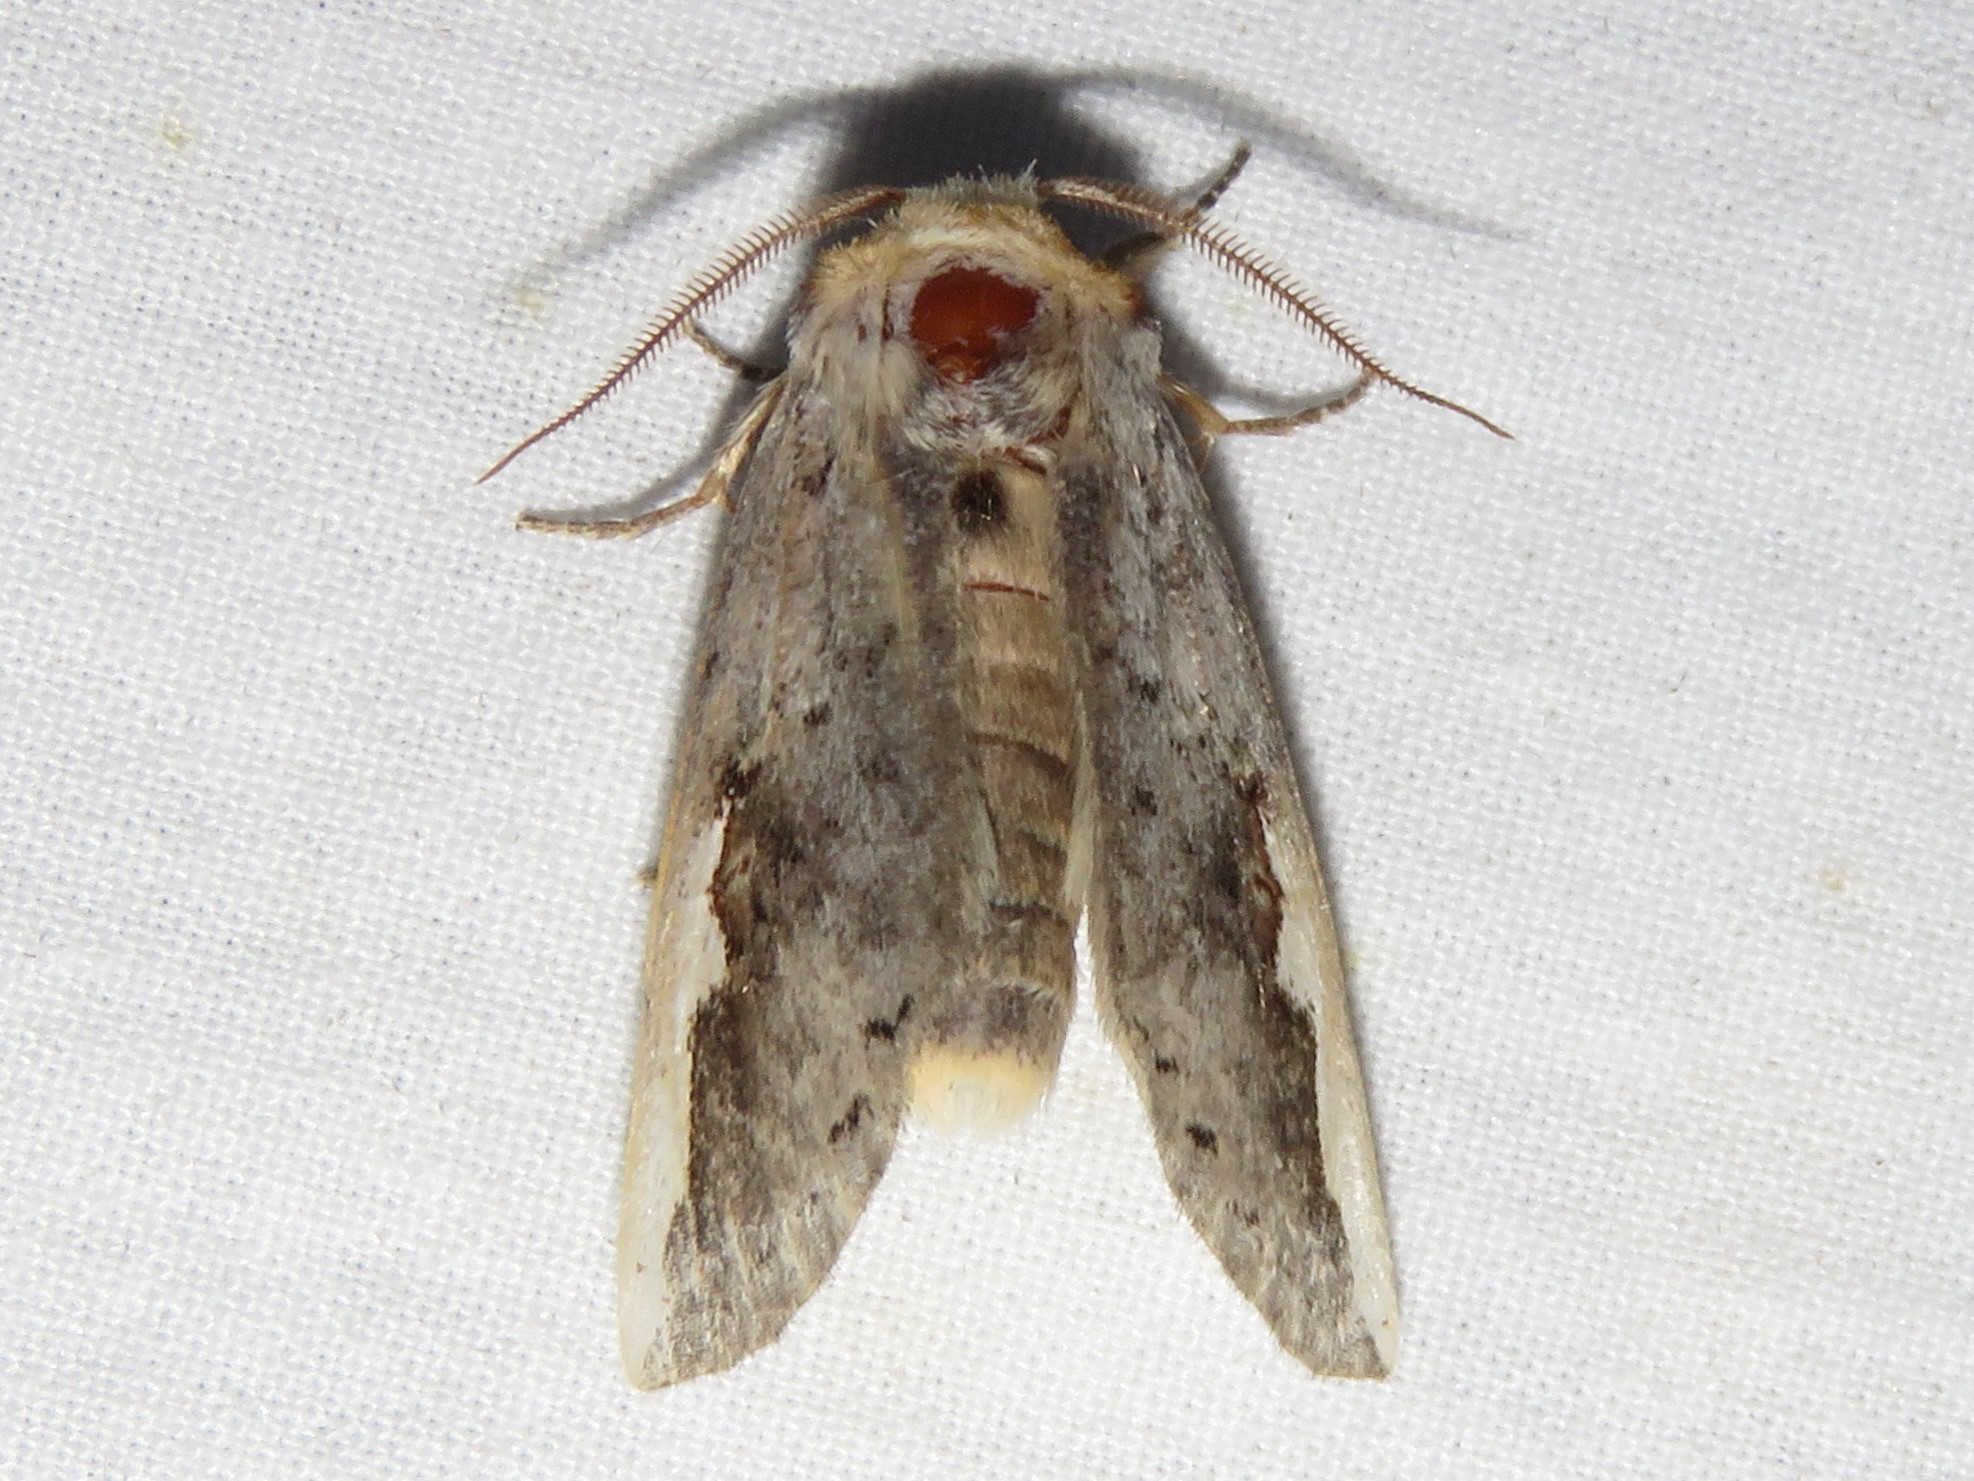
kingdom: Animalia
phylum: Arthropoda
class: Insecta
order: Lepidoptera
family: Notodontidae
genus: Symmerista
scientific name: Symmerista albifrons
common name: White-headed prominent
